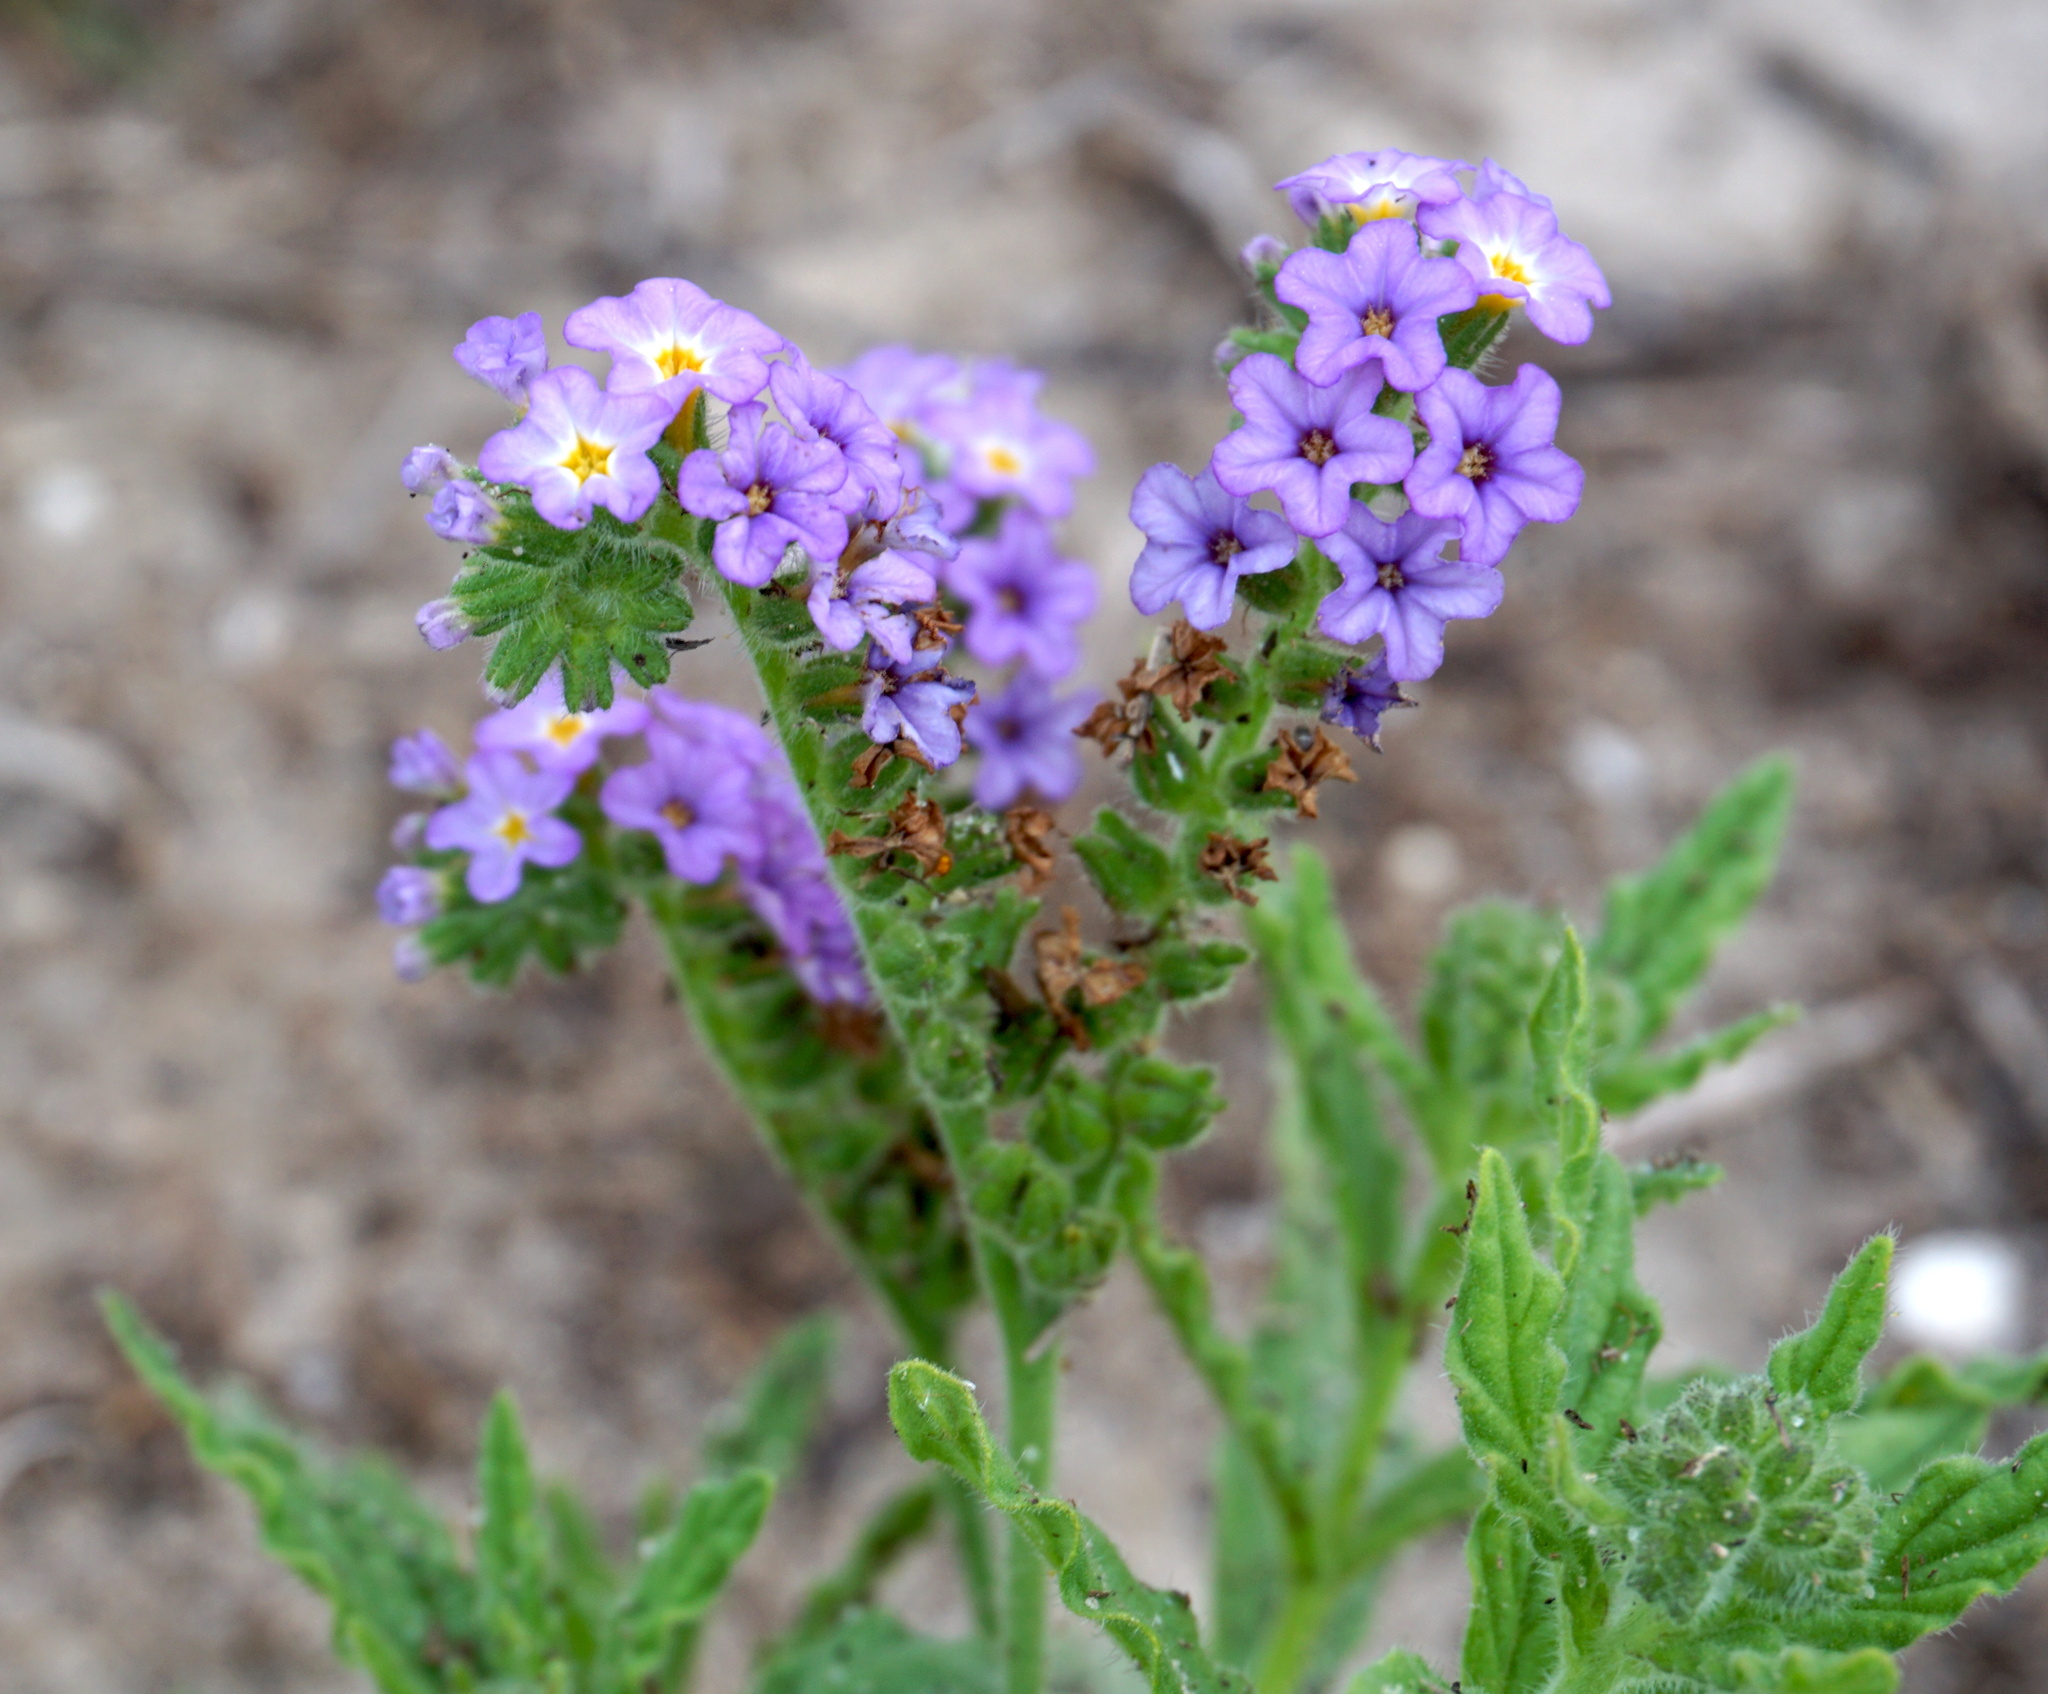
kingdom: Plantae
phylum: Tracheophyta
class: Magnoliopsida
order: Boraginales
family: Heliotropiaceae
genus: Heliotropium
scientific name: Heliotropium amplexicaule
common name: Clasping heliotrope
